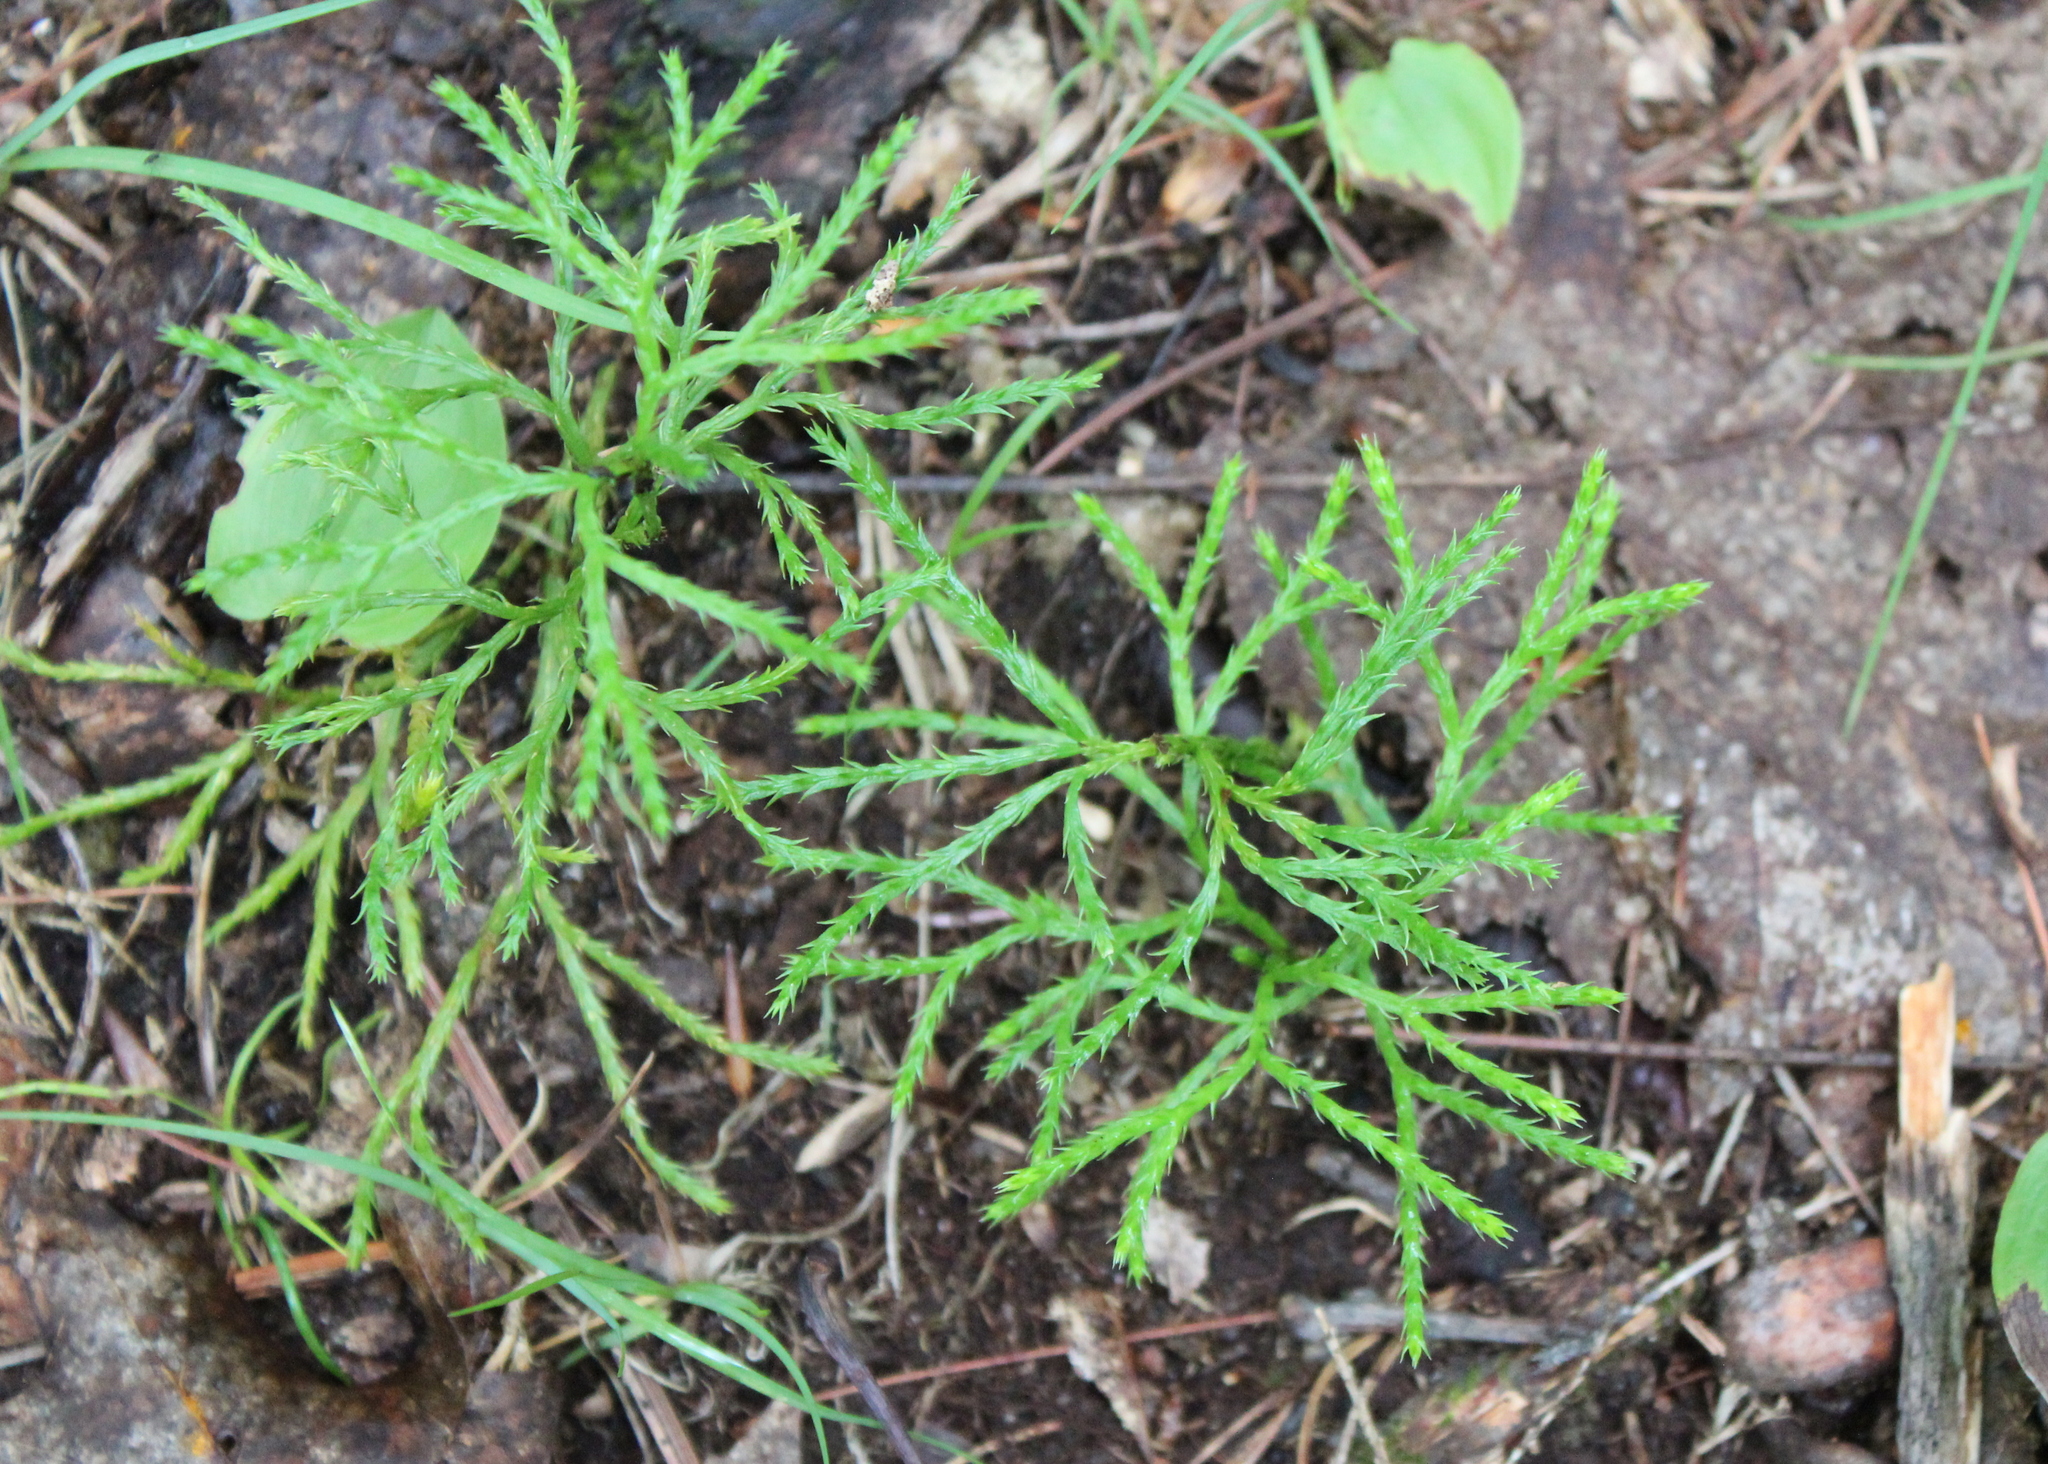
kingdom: Plantae
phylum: Tracheophyta
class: Lycopodiopsida
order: Lycopodiales
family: Lycopodiaceae
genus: Diphasiastrum
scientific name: Diphasiastrum digitatum
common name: Southern running-pine
